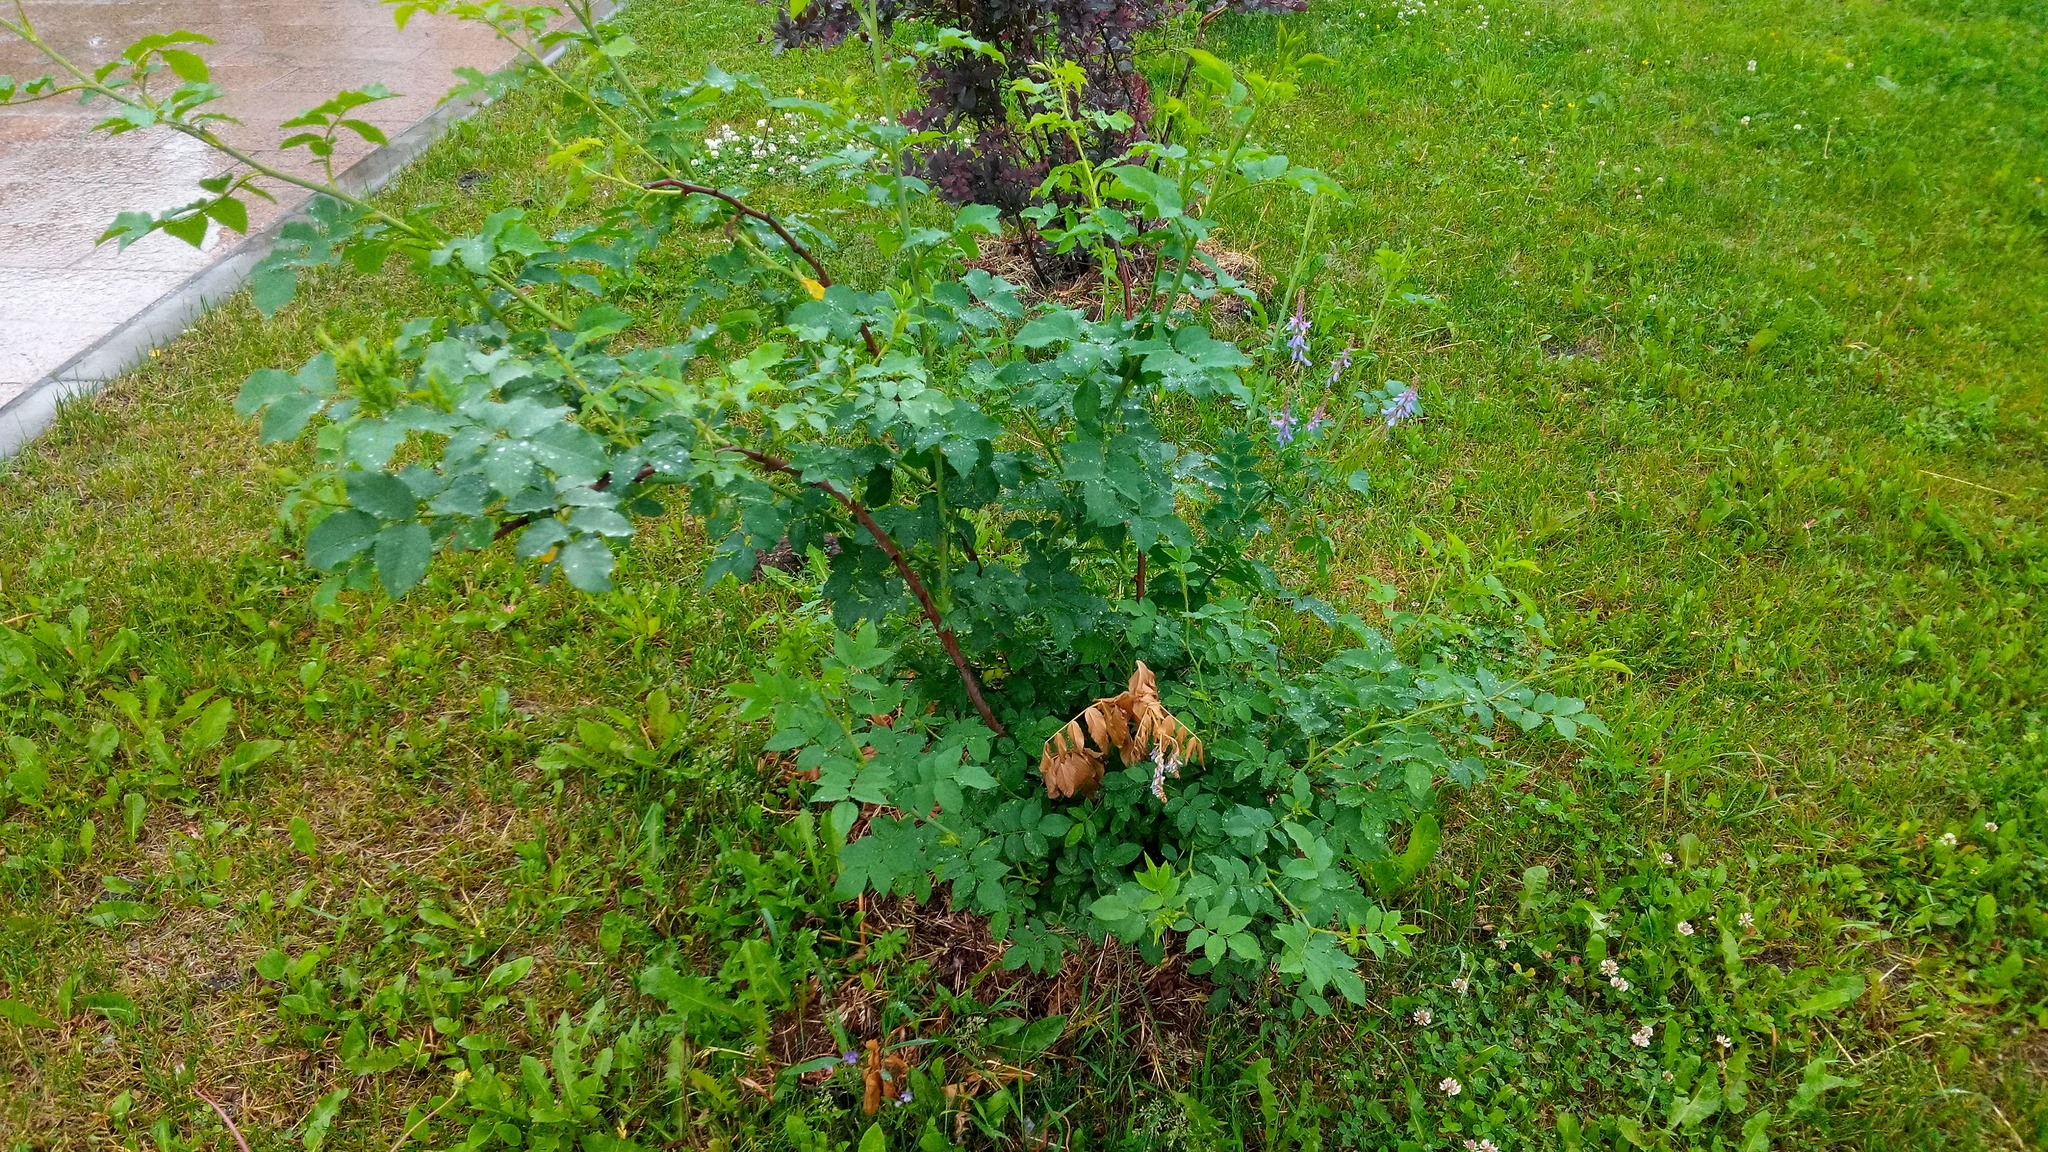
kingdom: Plantae
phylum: Tracheophyta
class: Magnoliopsida
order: Fabales
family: Fabaceae
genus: Galega
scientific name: Galega orientalis
